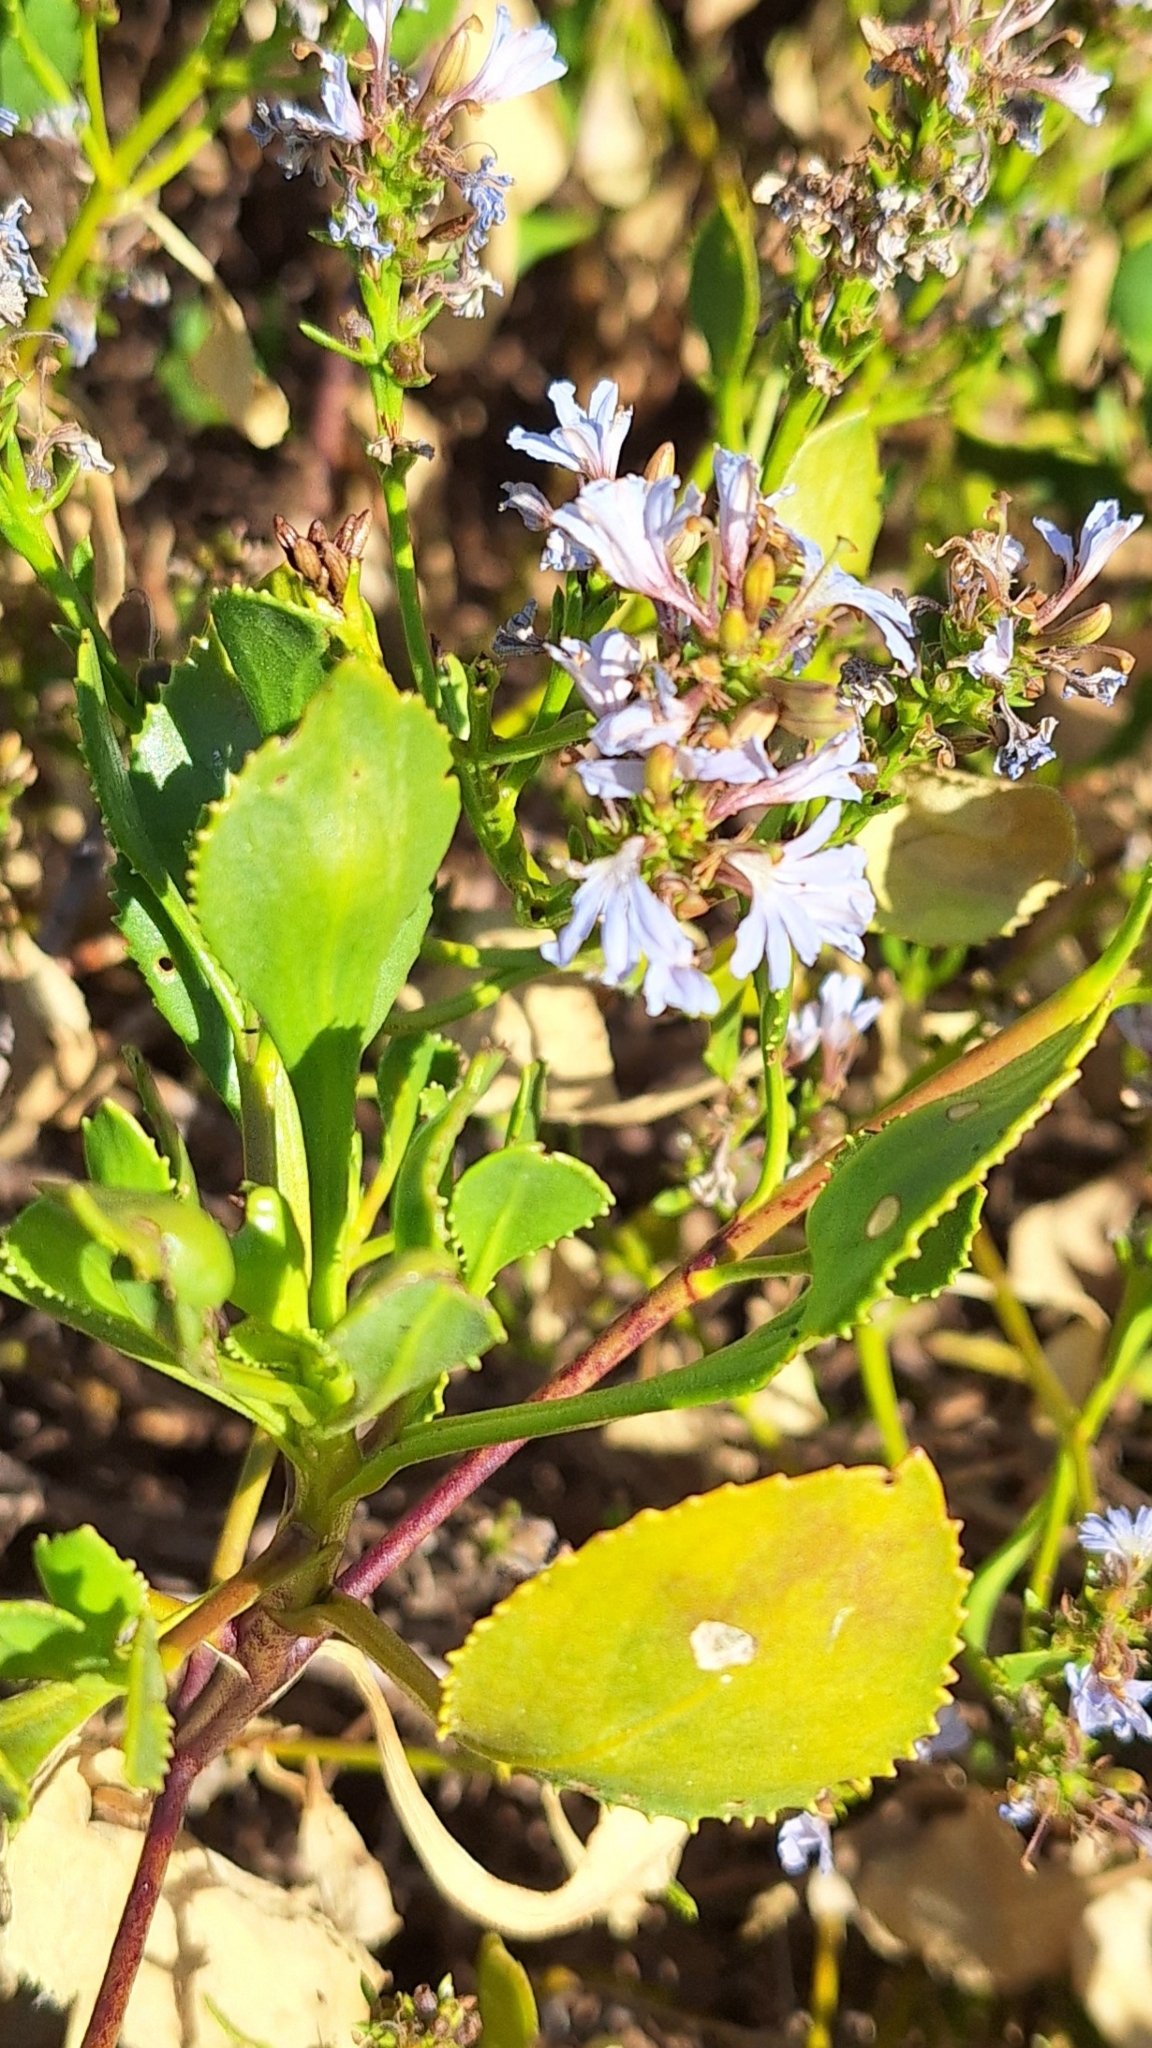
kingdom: Plantae
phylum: Tracheophyta
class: Magnoliopsida
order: Asterales
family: Goodeniaceae
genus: Scaevola
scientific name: Scaevola crassifolia
